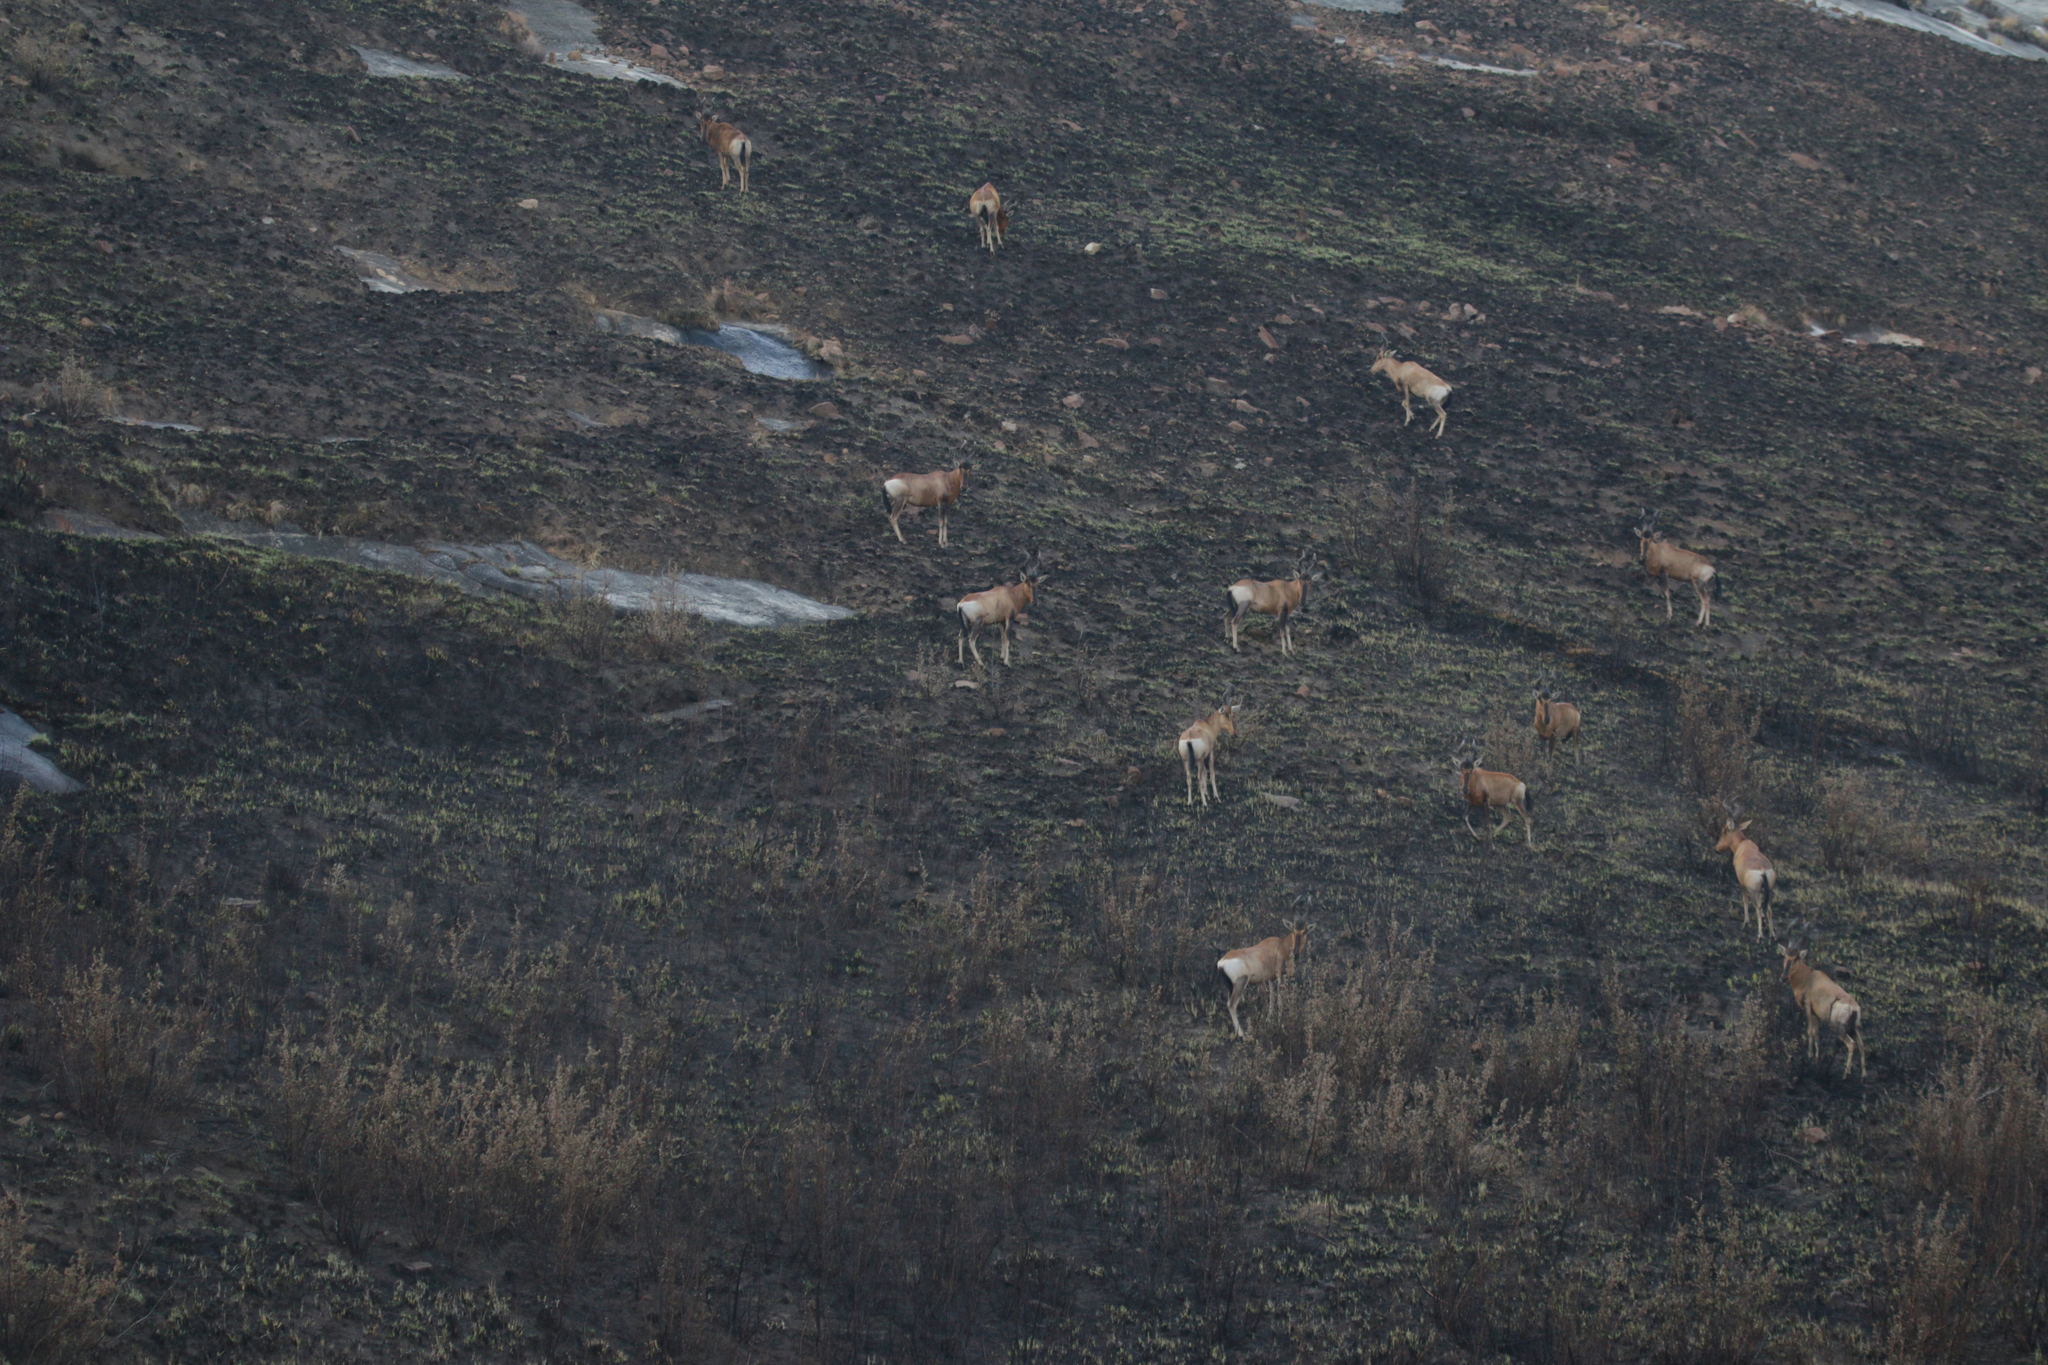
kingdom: Animalia
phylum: Chordata
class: Mammalia
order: Artiodactyla
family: Bovidae
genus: Alcelaphus
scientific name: Alcelaphus caama
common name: Red hartebeest
